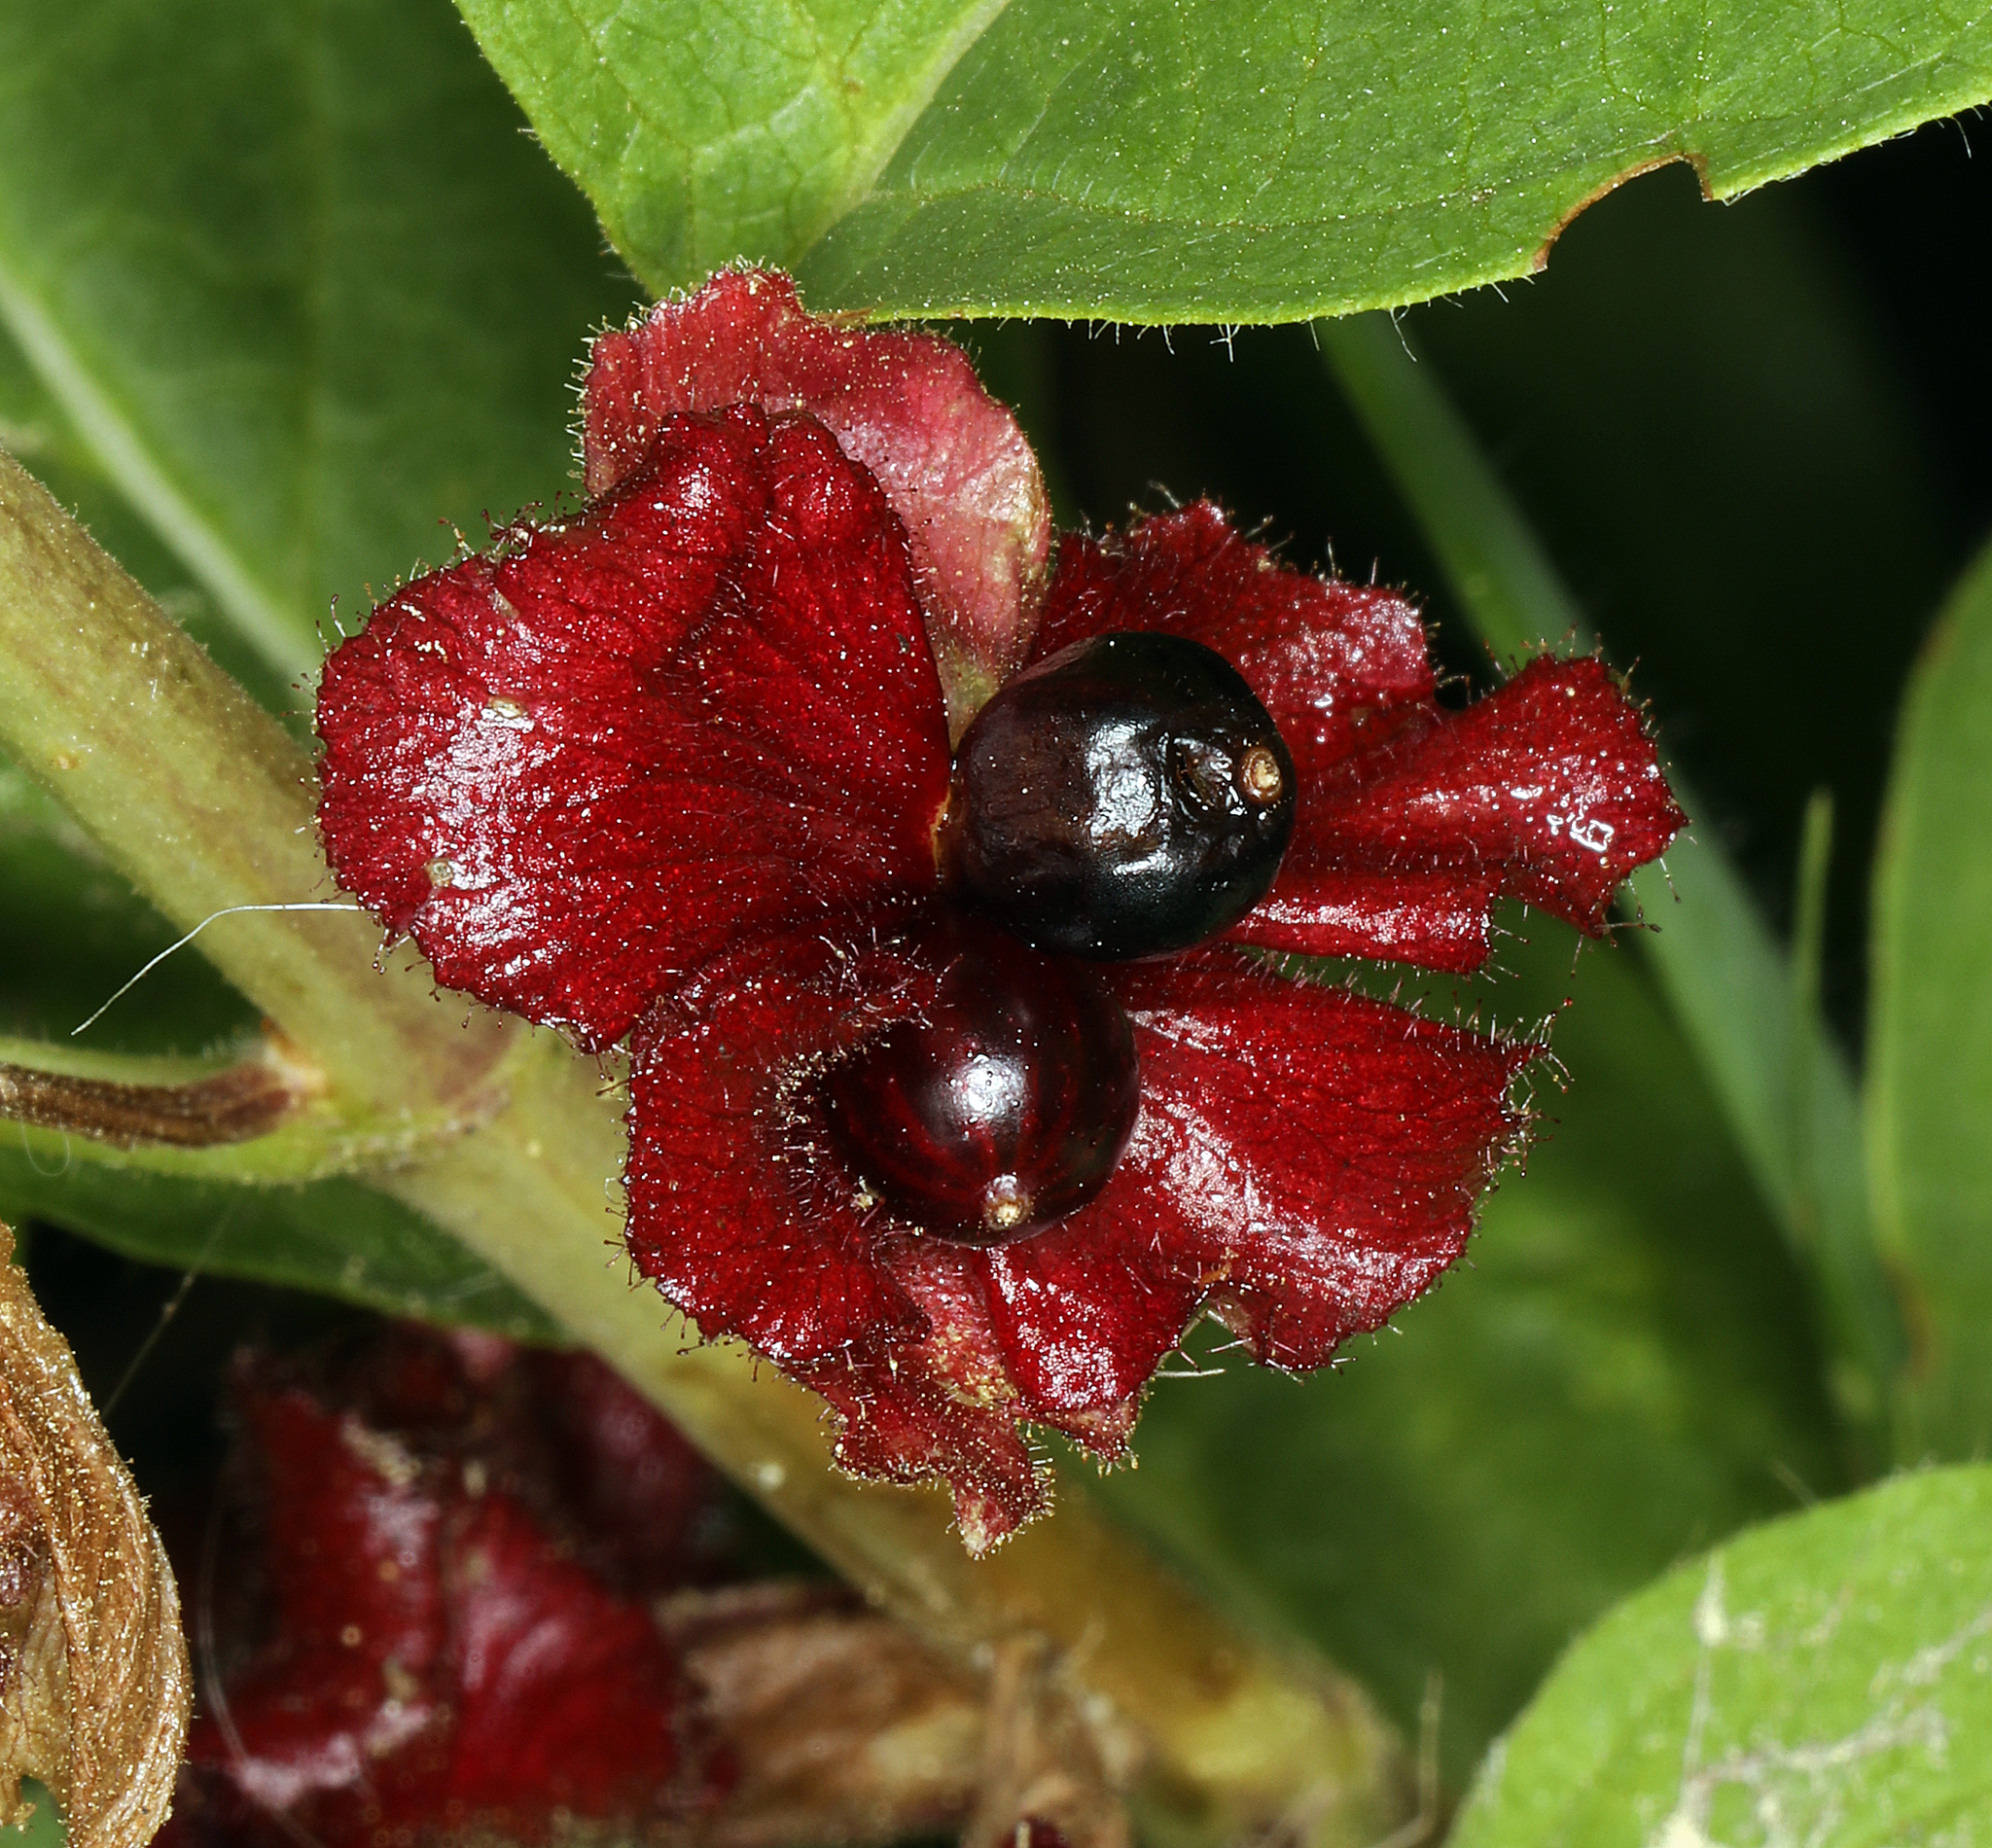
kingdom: Plantae
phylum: Tracheophyta
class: Magnoliopsida
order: Dipsacales
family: Caprifoliaceae
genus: Lonicera
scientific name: Lonicera involucrata
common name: Californian honeysuckle
